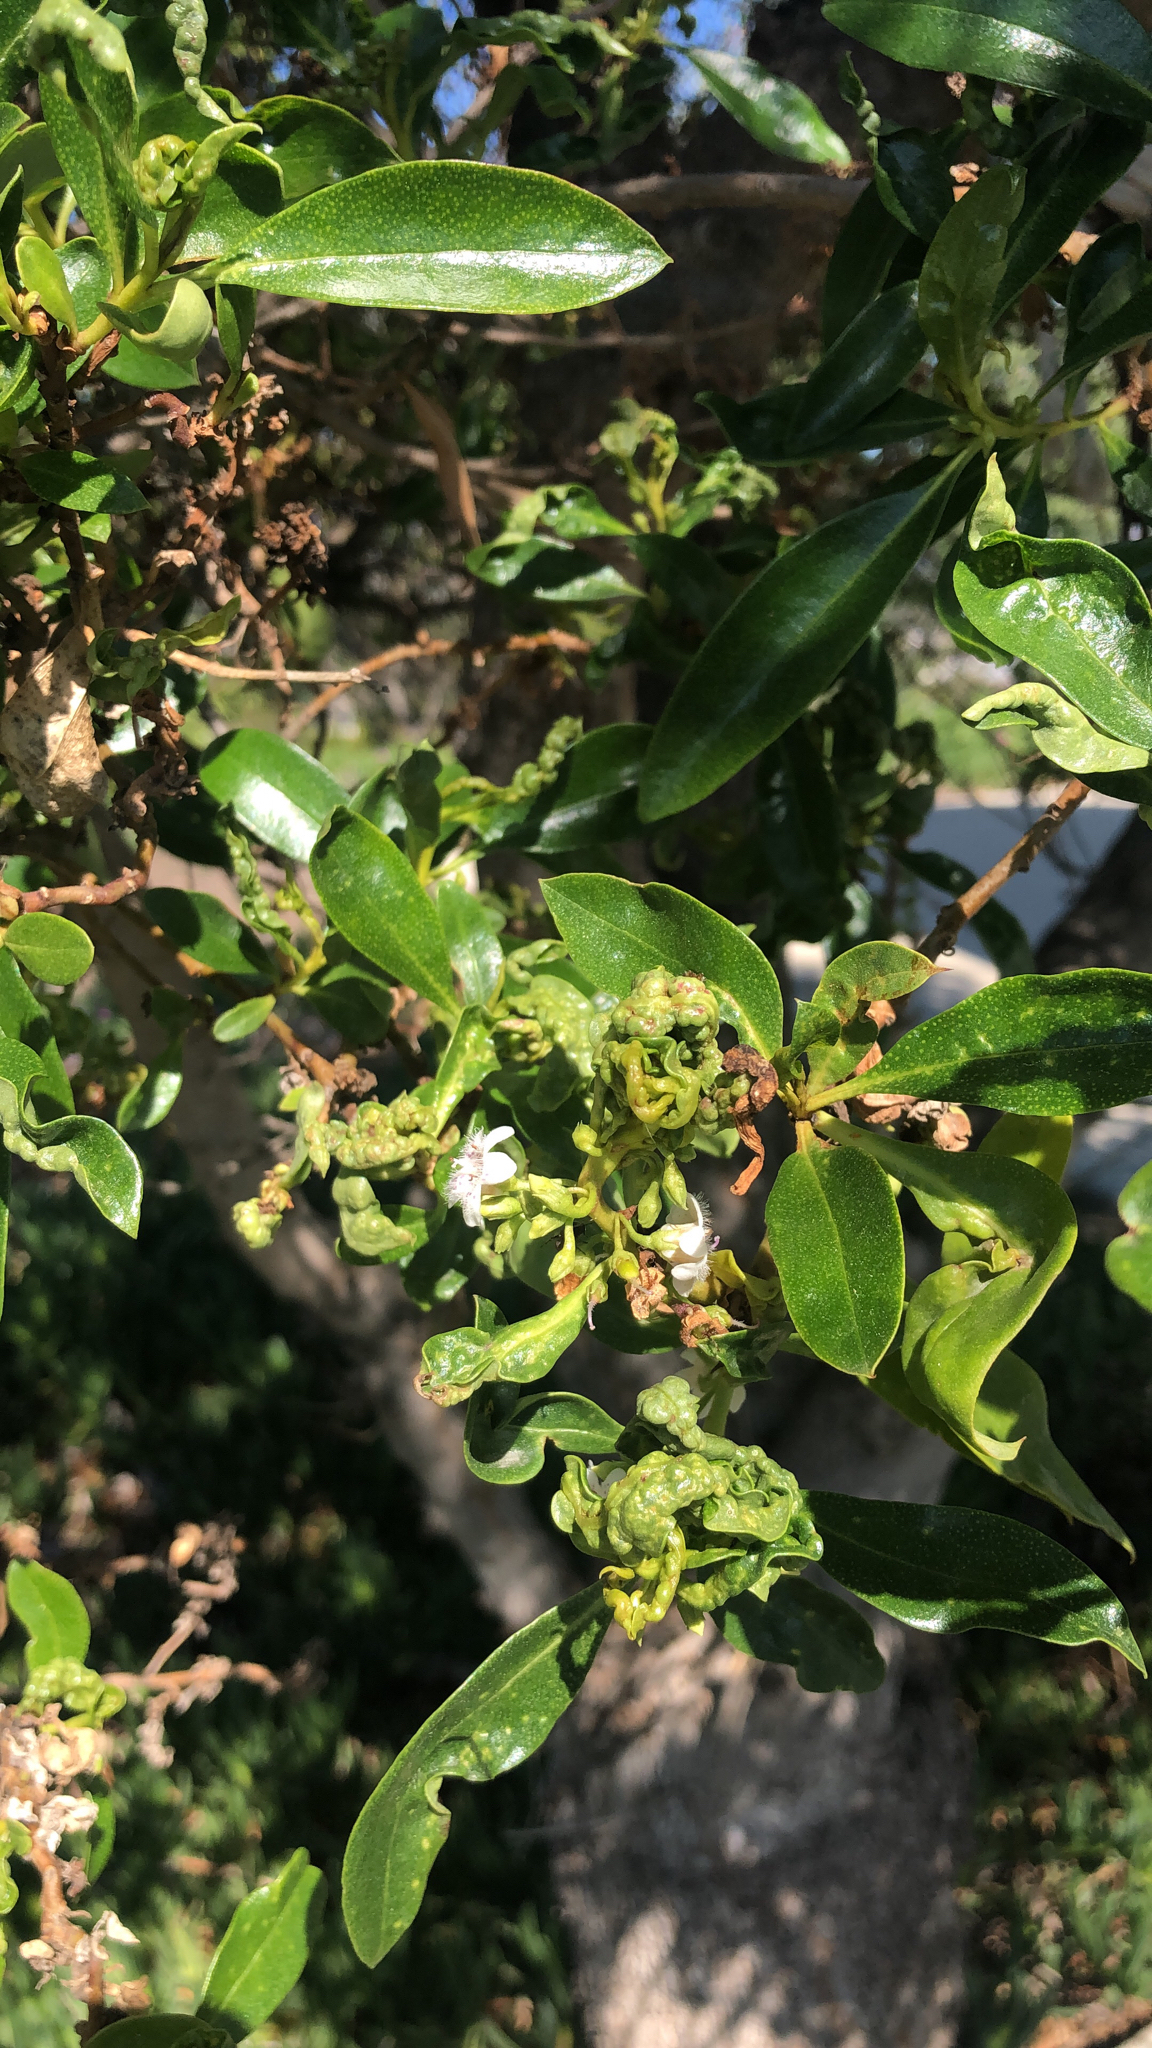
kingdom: Plantae
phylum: Tracheophyta
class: Magnoliopsida
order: Lamiales
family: Scrophulariaceae
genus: Myoporum
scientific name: Myoporum laetum
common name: Ngaio tree
